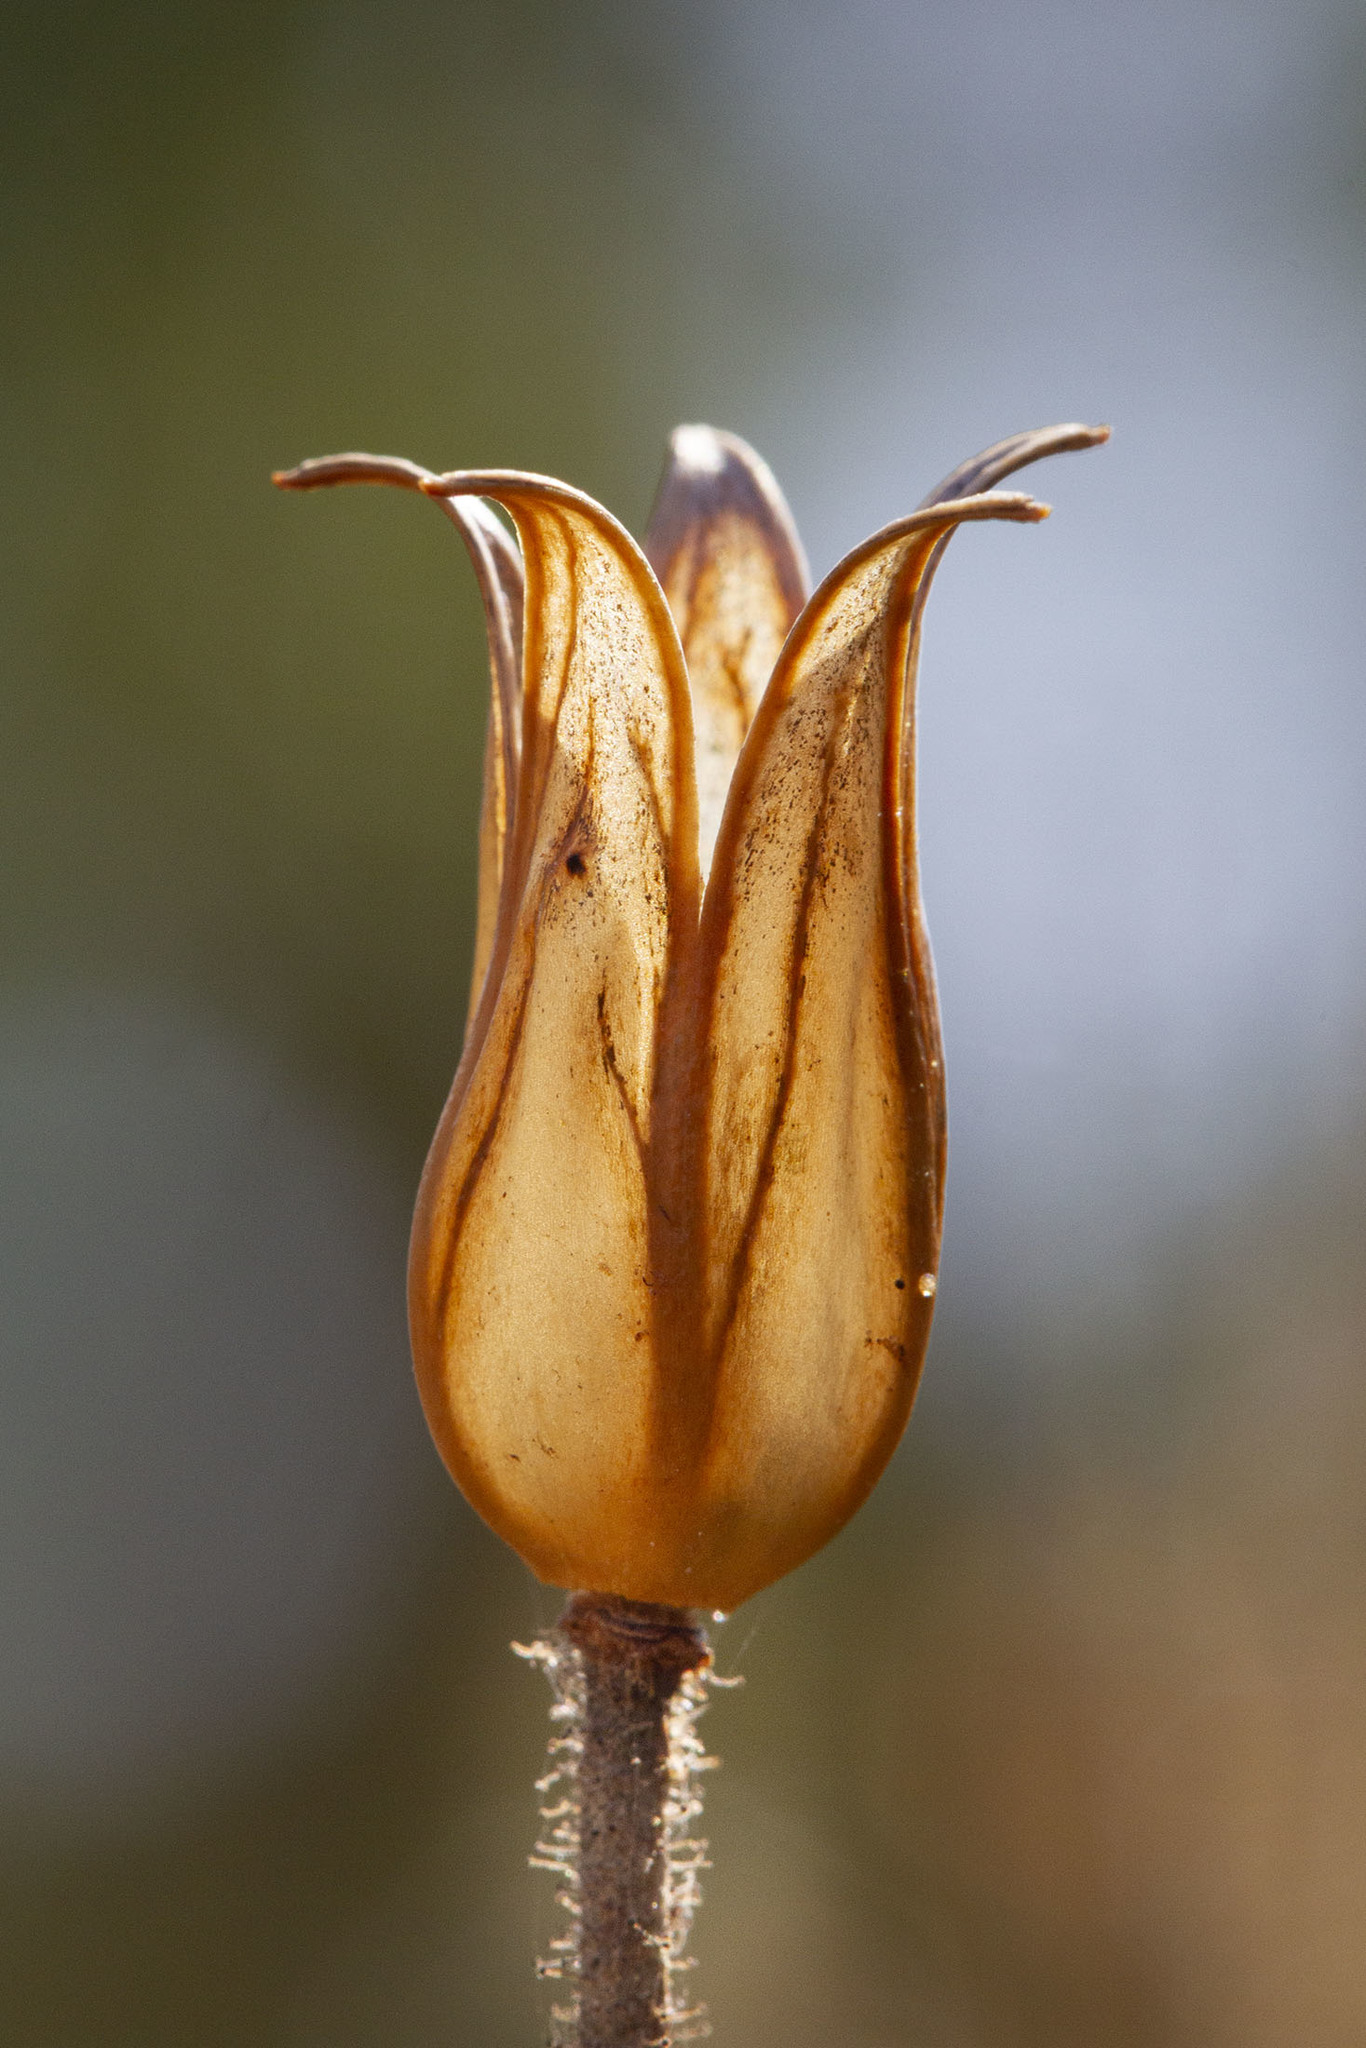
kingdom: Plantae
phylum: Tracheophyta
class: Magnoliopsida
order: Caryophyllales
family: Drosophyllaceae
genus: Drosophyllum
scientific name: Drosophyllum lusitanicum
